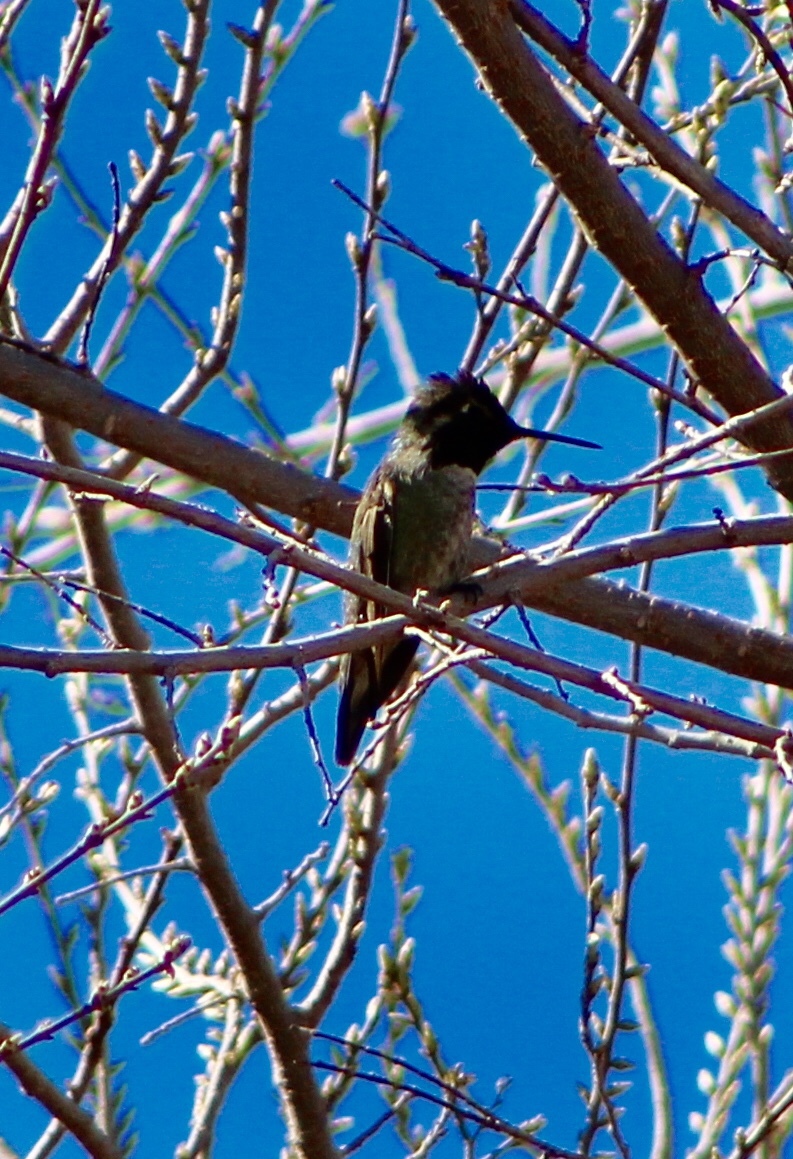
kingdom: Animalia
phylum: Chordata
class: Aves
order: Apodiformes
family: Trochilidae
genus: Calypte
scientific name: Calypte anna
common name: Anna's hummingbird
